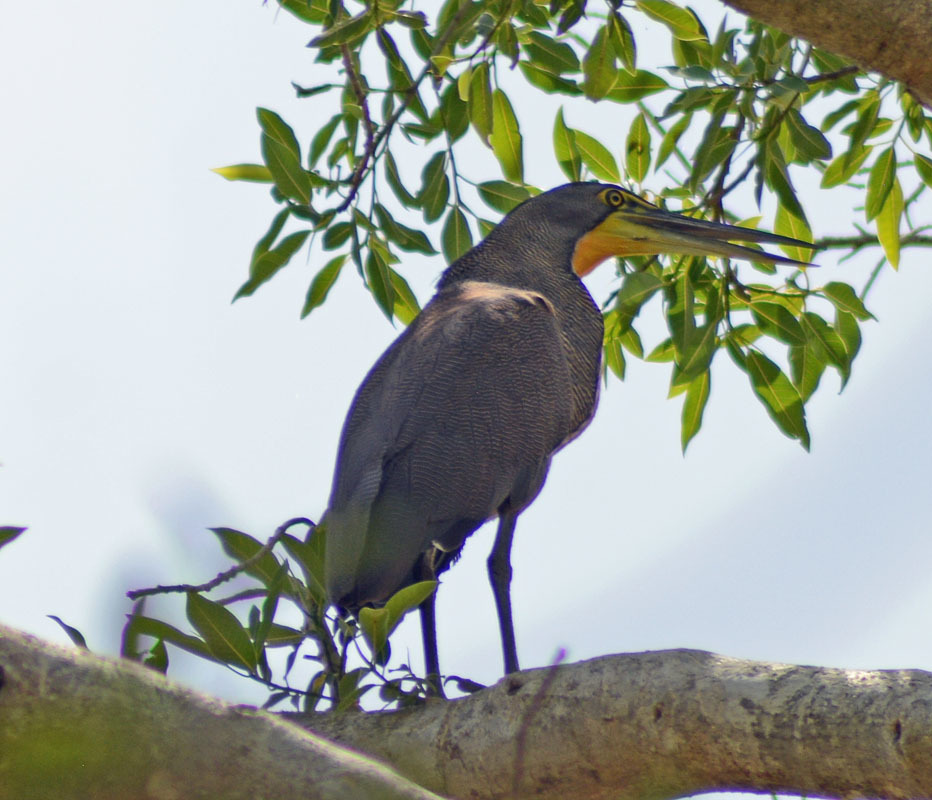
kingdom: Animalia
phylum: Chordata
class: Aves
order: Pelecaniformes
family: Ardeidae
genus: Tigrisoma
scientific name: Tigrisoma mexicanum
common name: Bare-throated tiger-heron
